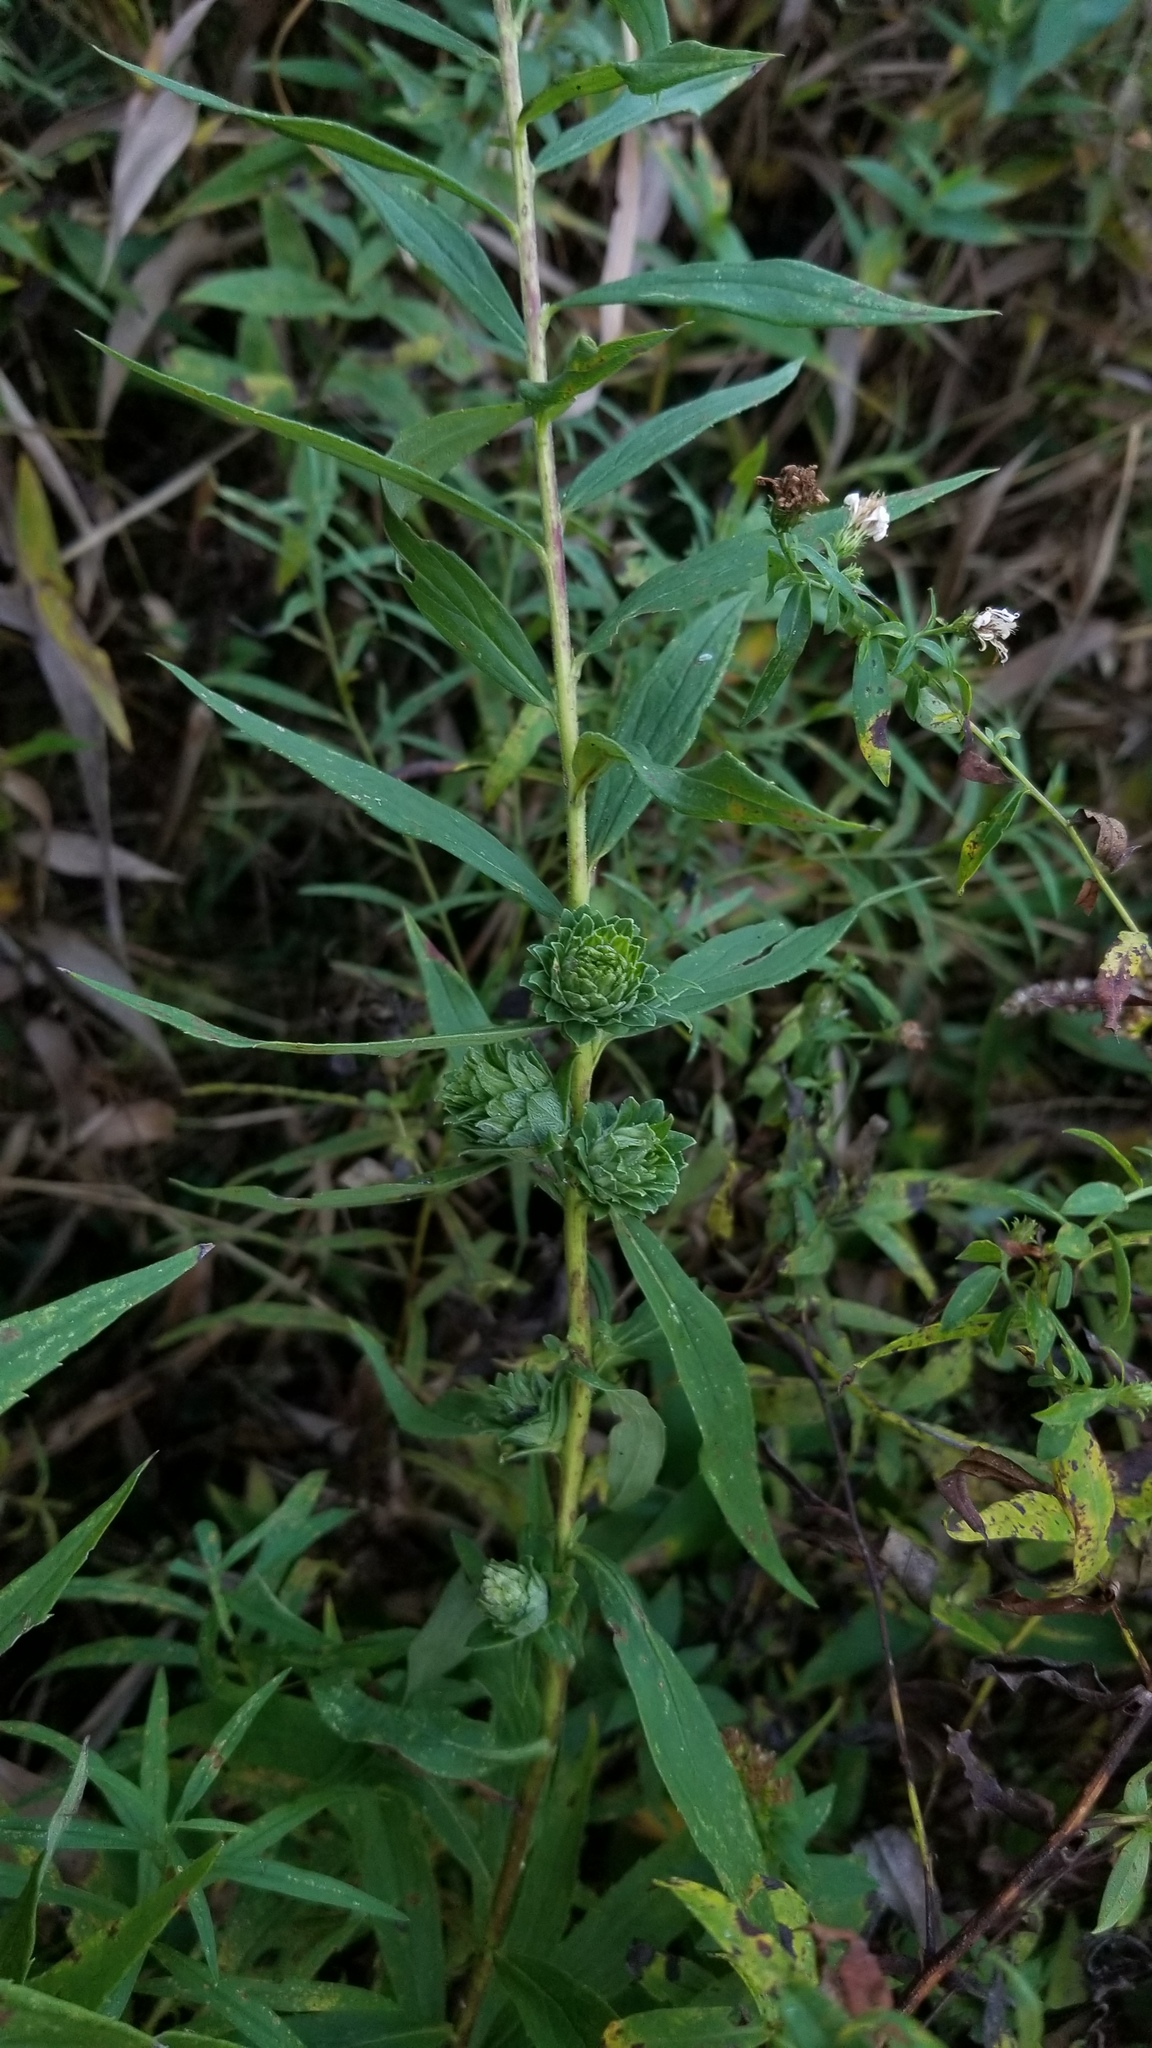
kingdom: Animalia
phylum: Arthropoda
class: Insecta
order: Diptera
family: Tephritidae
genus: Procecidochares
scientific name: Procecidochares atra
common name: Goldenrod brussels sprout gall fly
